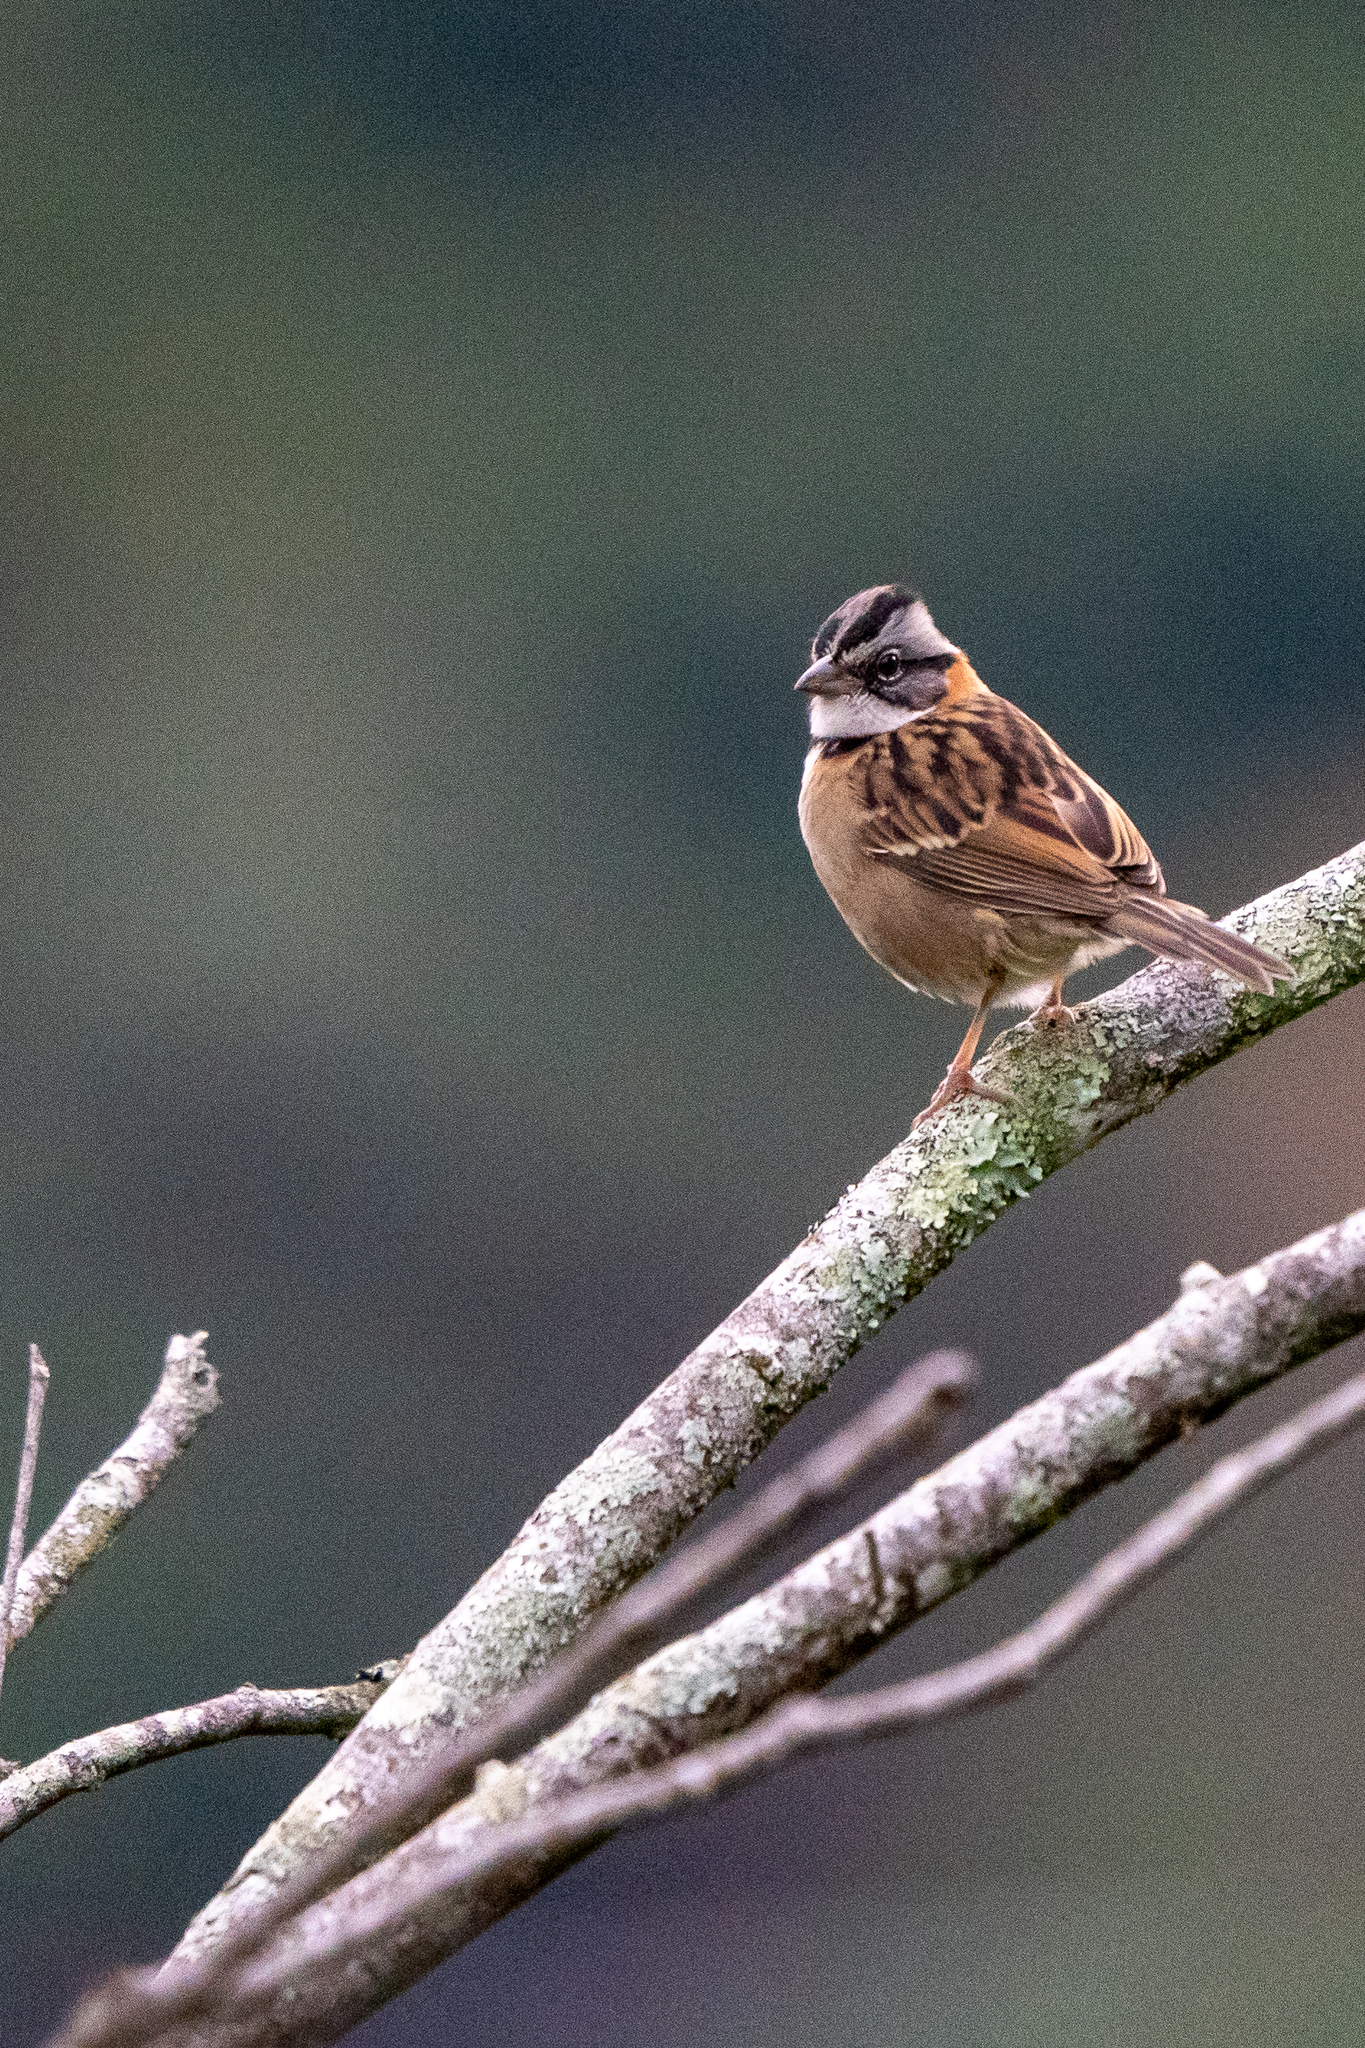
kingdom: Animalia
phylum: Chordata
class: Aves
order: Passeriformes
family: Passerellidae
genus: Zonotrichia
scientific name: Zonotrichia capensis
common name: Rufous-collared sparrow
